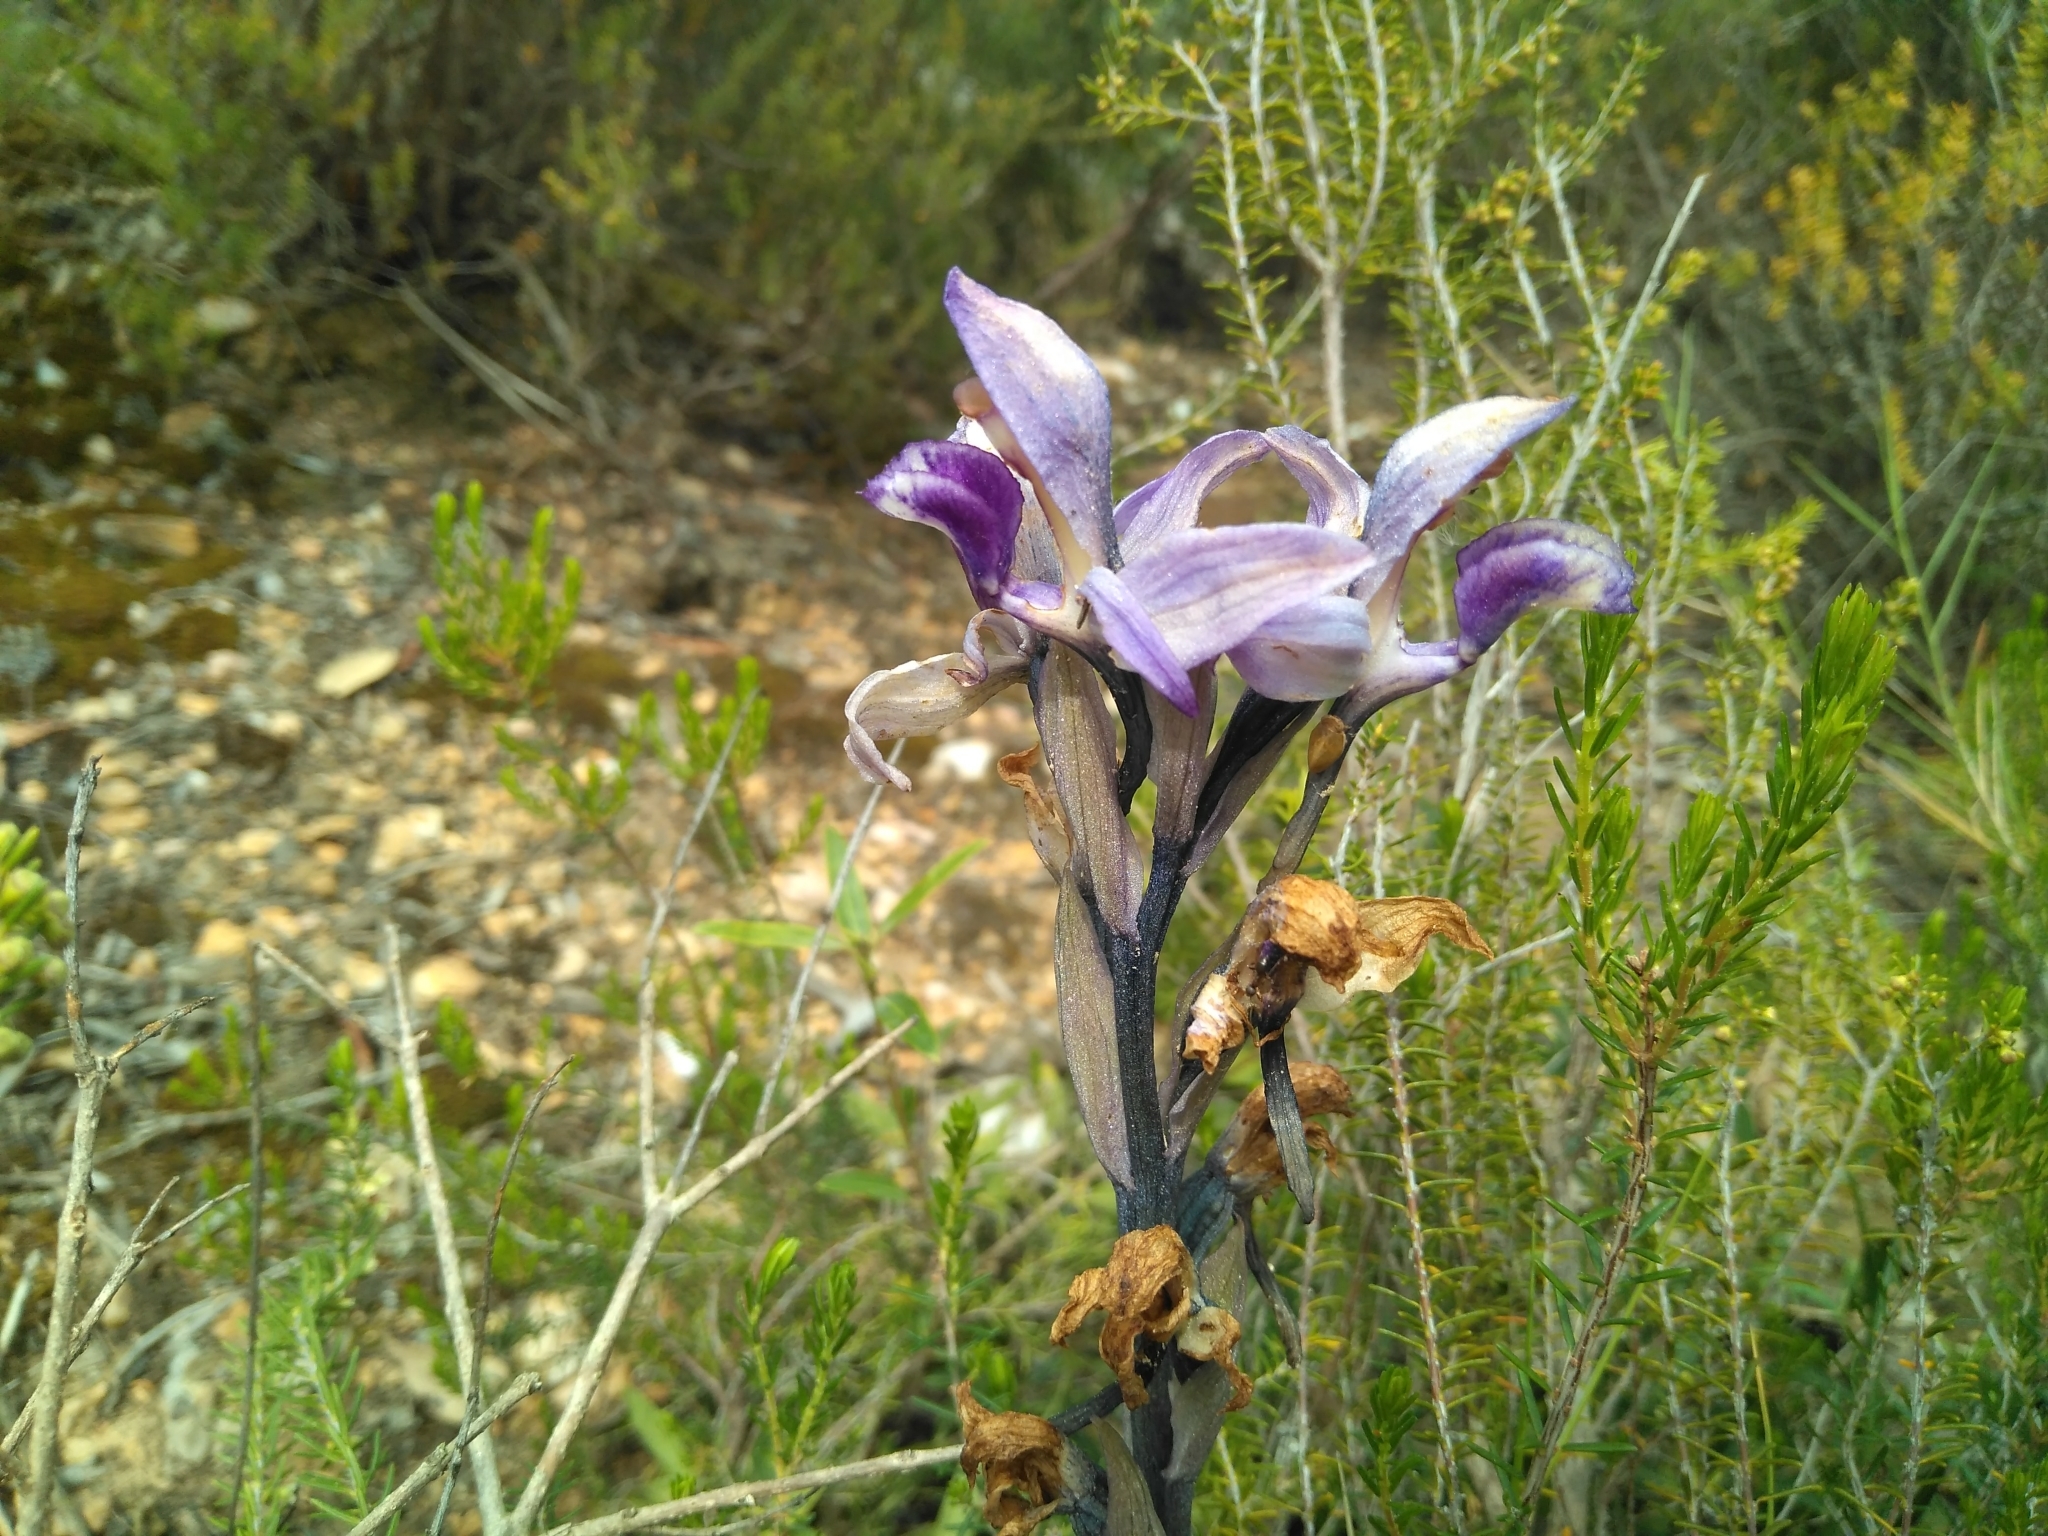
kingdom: Plantae
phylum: Tracheophyta
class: Liliopsida
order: Asparagales
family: Orchidaceae
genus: Limodorum
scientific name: Limodorum abortivum
